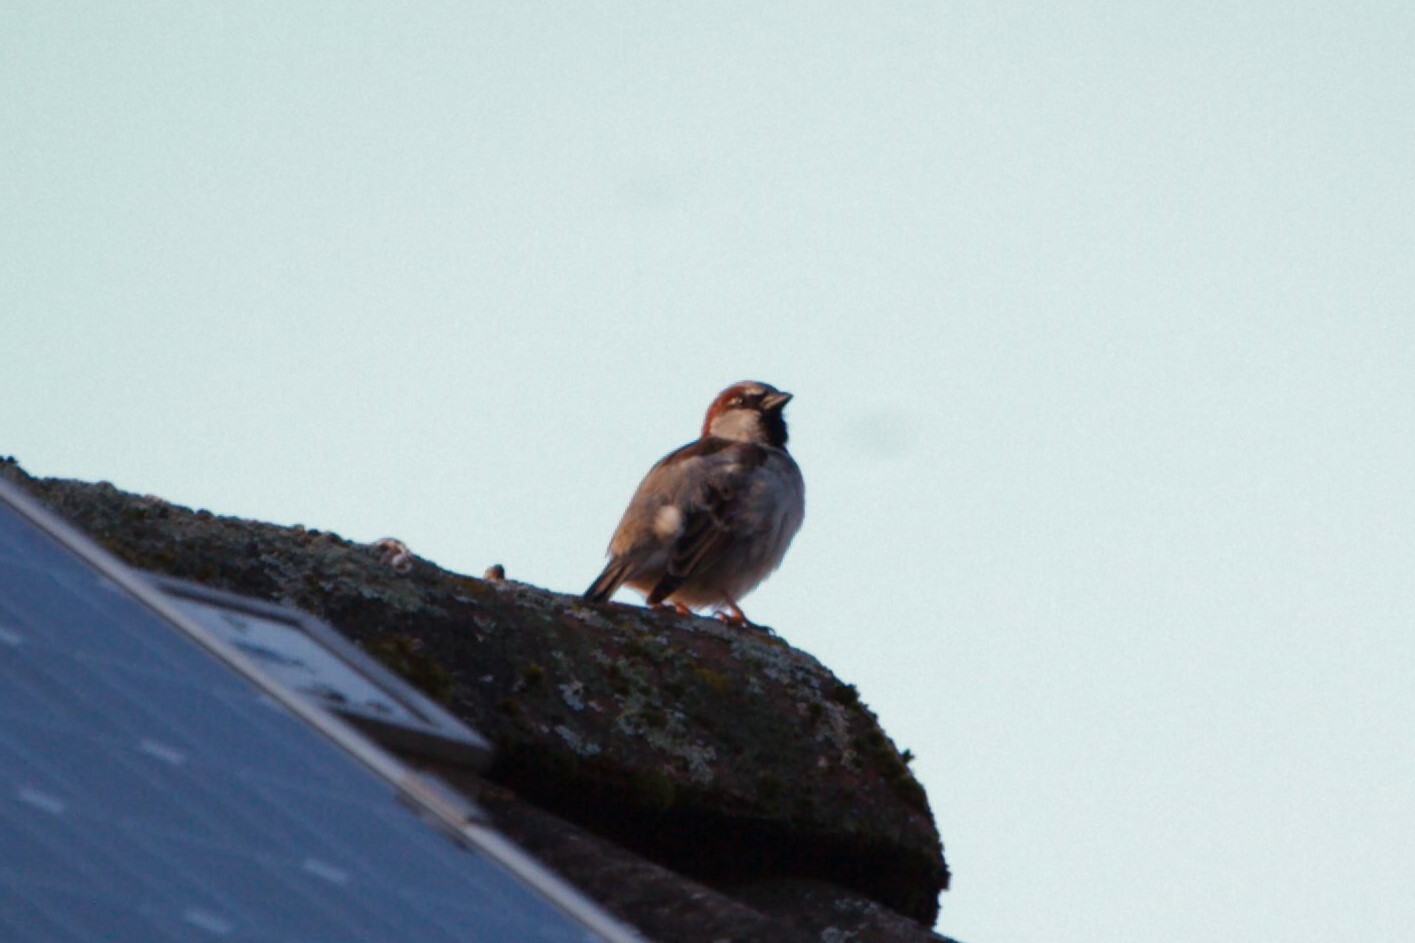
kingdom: Animalia
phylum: Chordata
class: Aves
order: Passeriformes
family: Passeridae
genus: Passer
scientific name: Passer domesticus
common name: House sparrow
